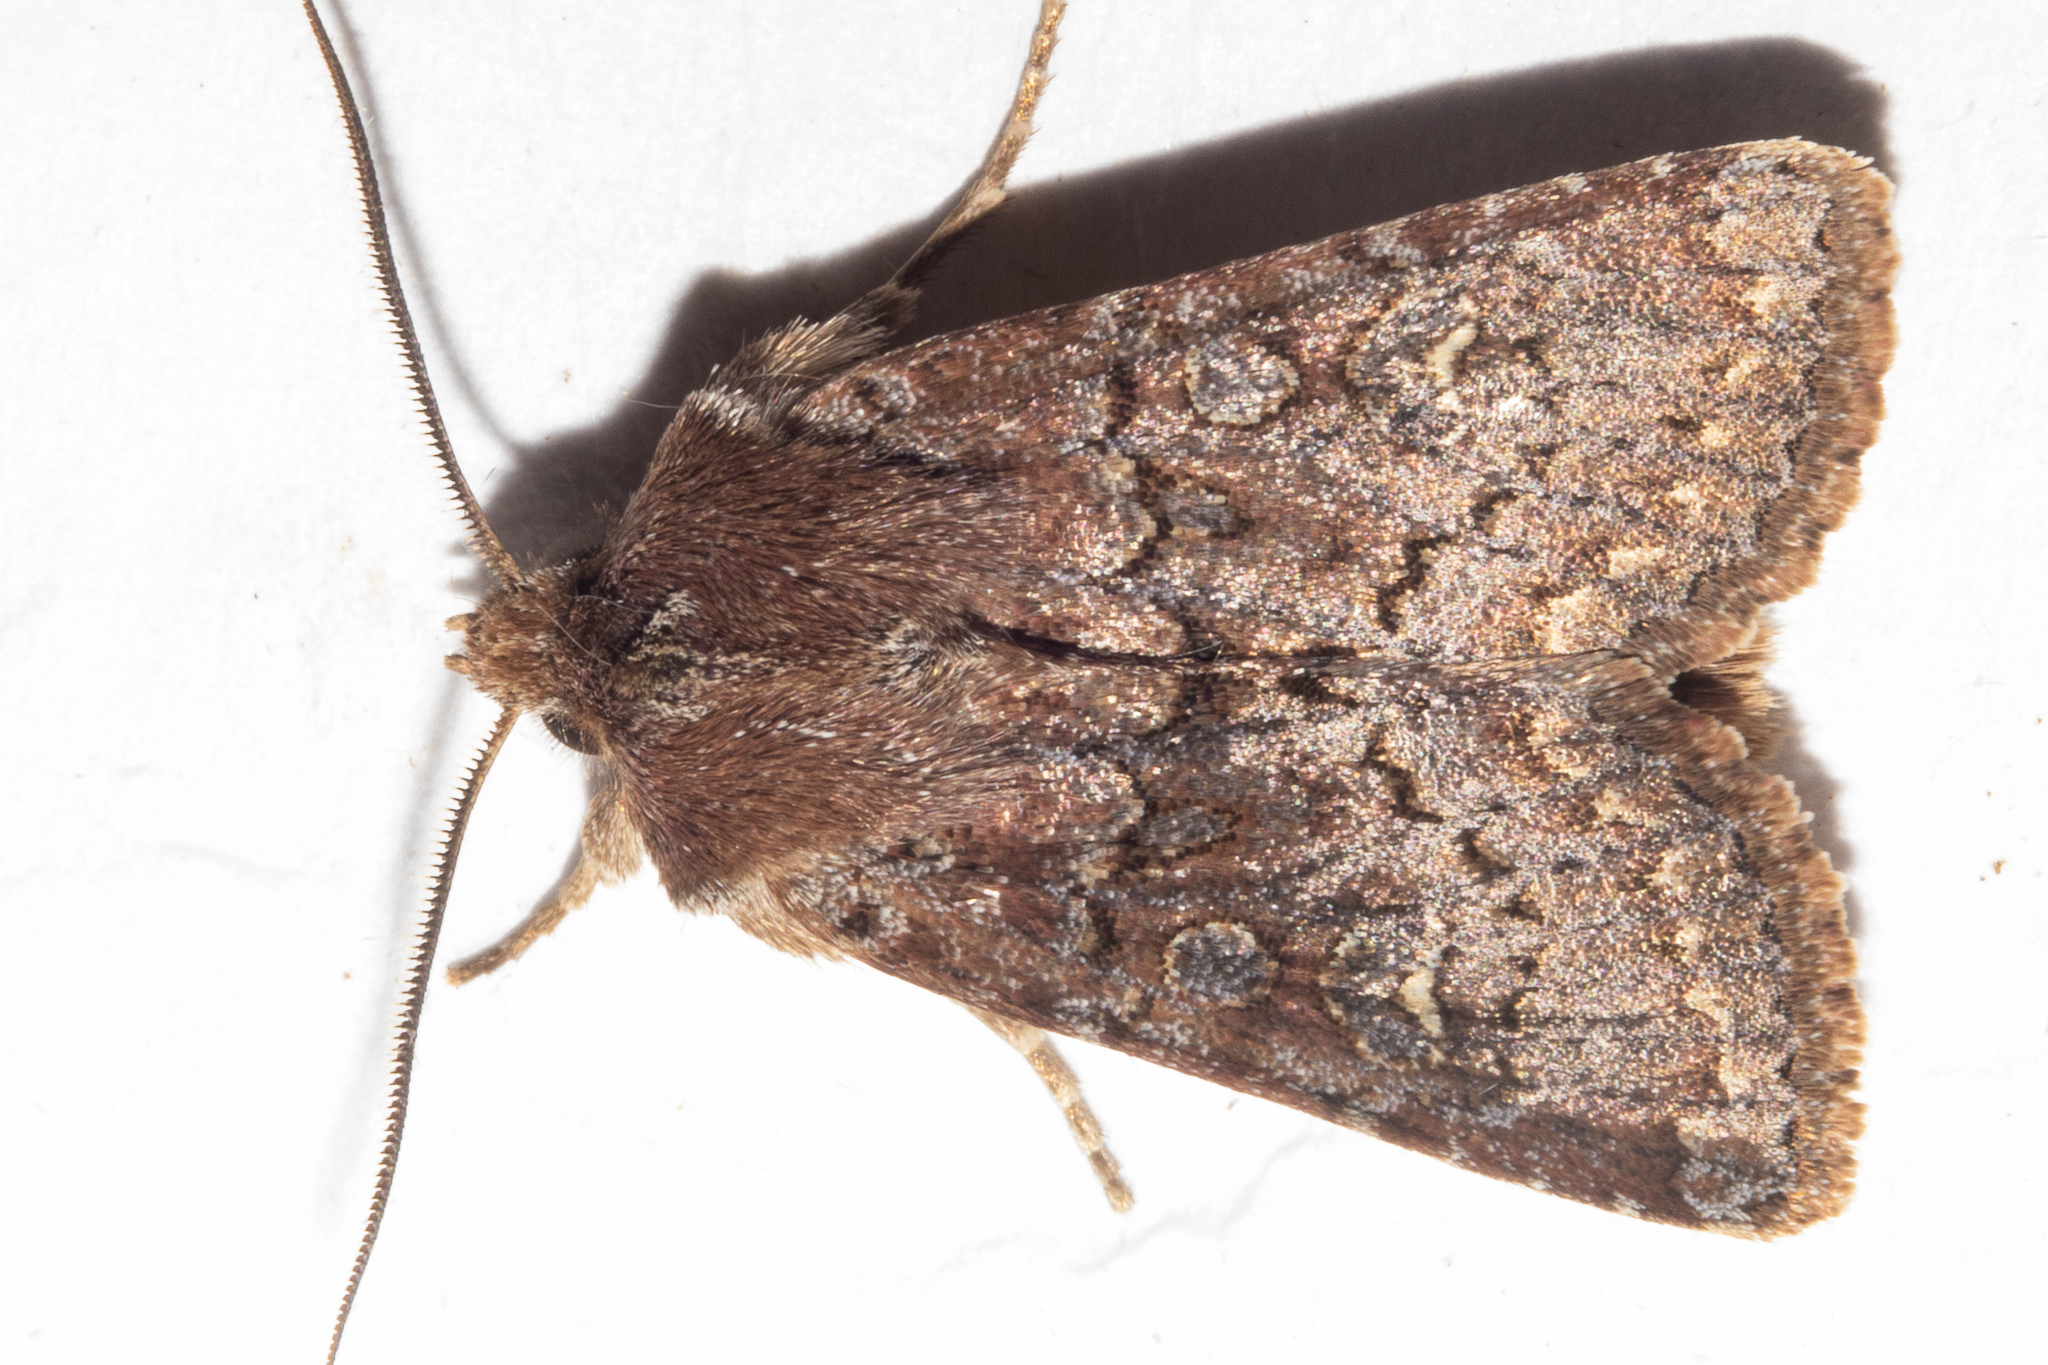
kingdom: Animalia
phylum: Arthropoda
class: Insecta
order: Lepidoptera
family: Noctuidae
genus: Ichneutica
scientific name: Ichneutica agorastis
